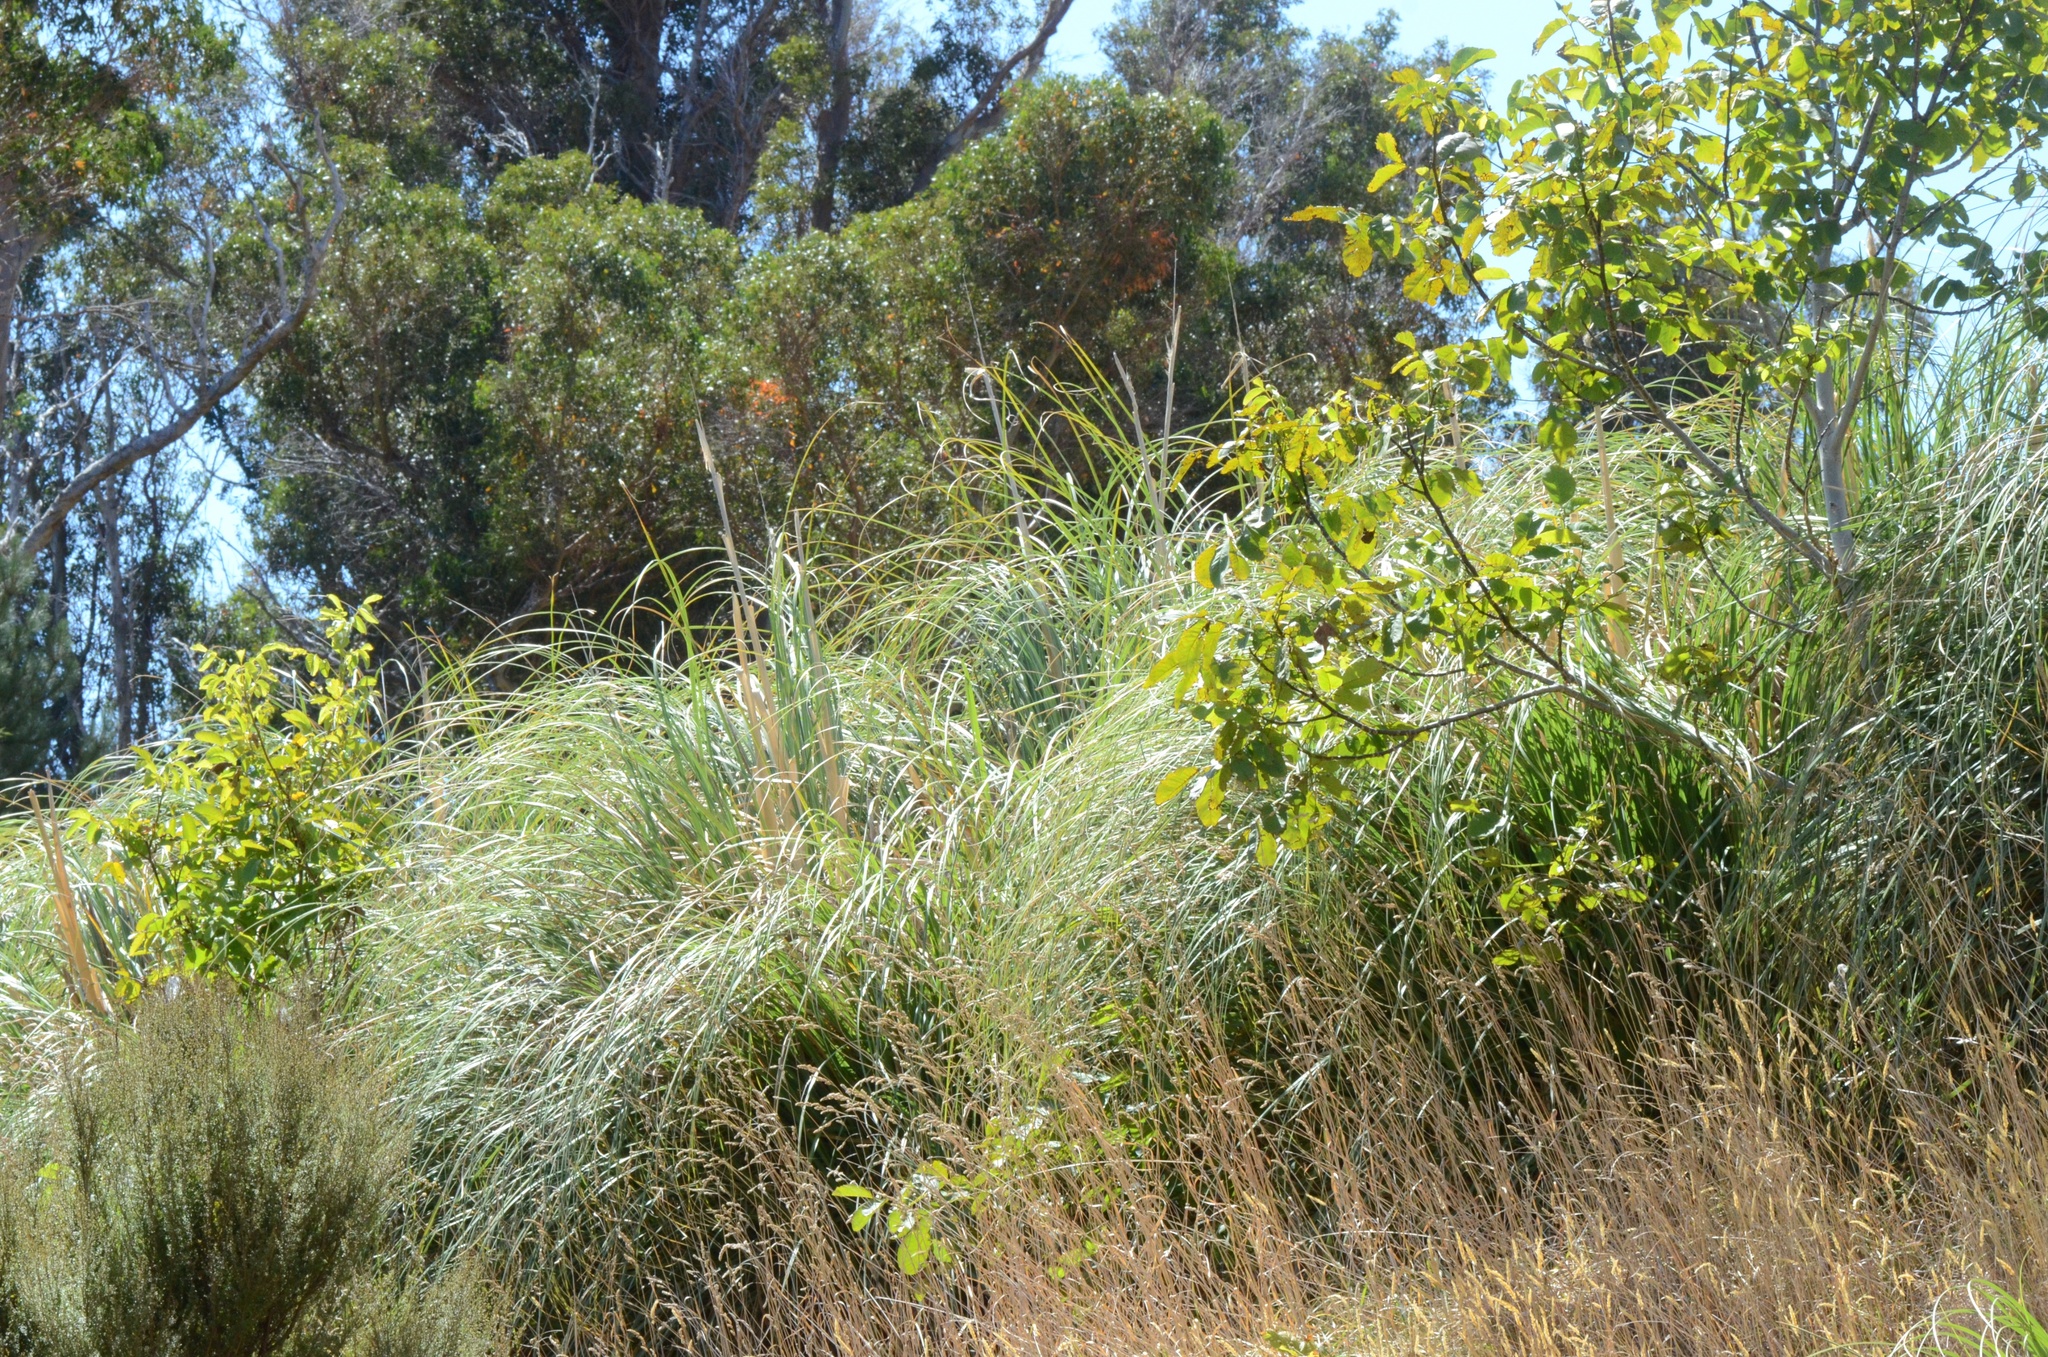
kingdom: Plantae
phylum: Tracheophyta
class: Magnoliopsida
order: Fagales
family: Juglandaceae
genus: Juglans
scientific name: Juglans regia
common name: Walnut
